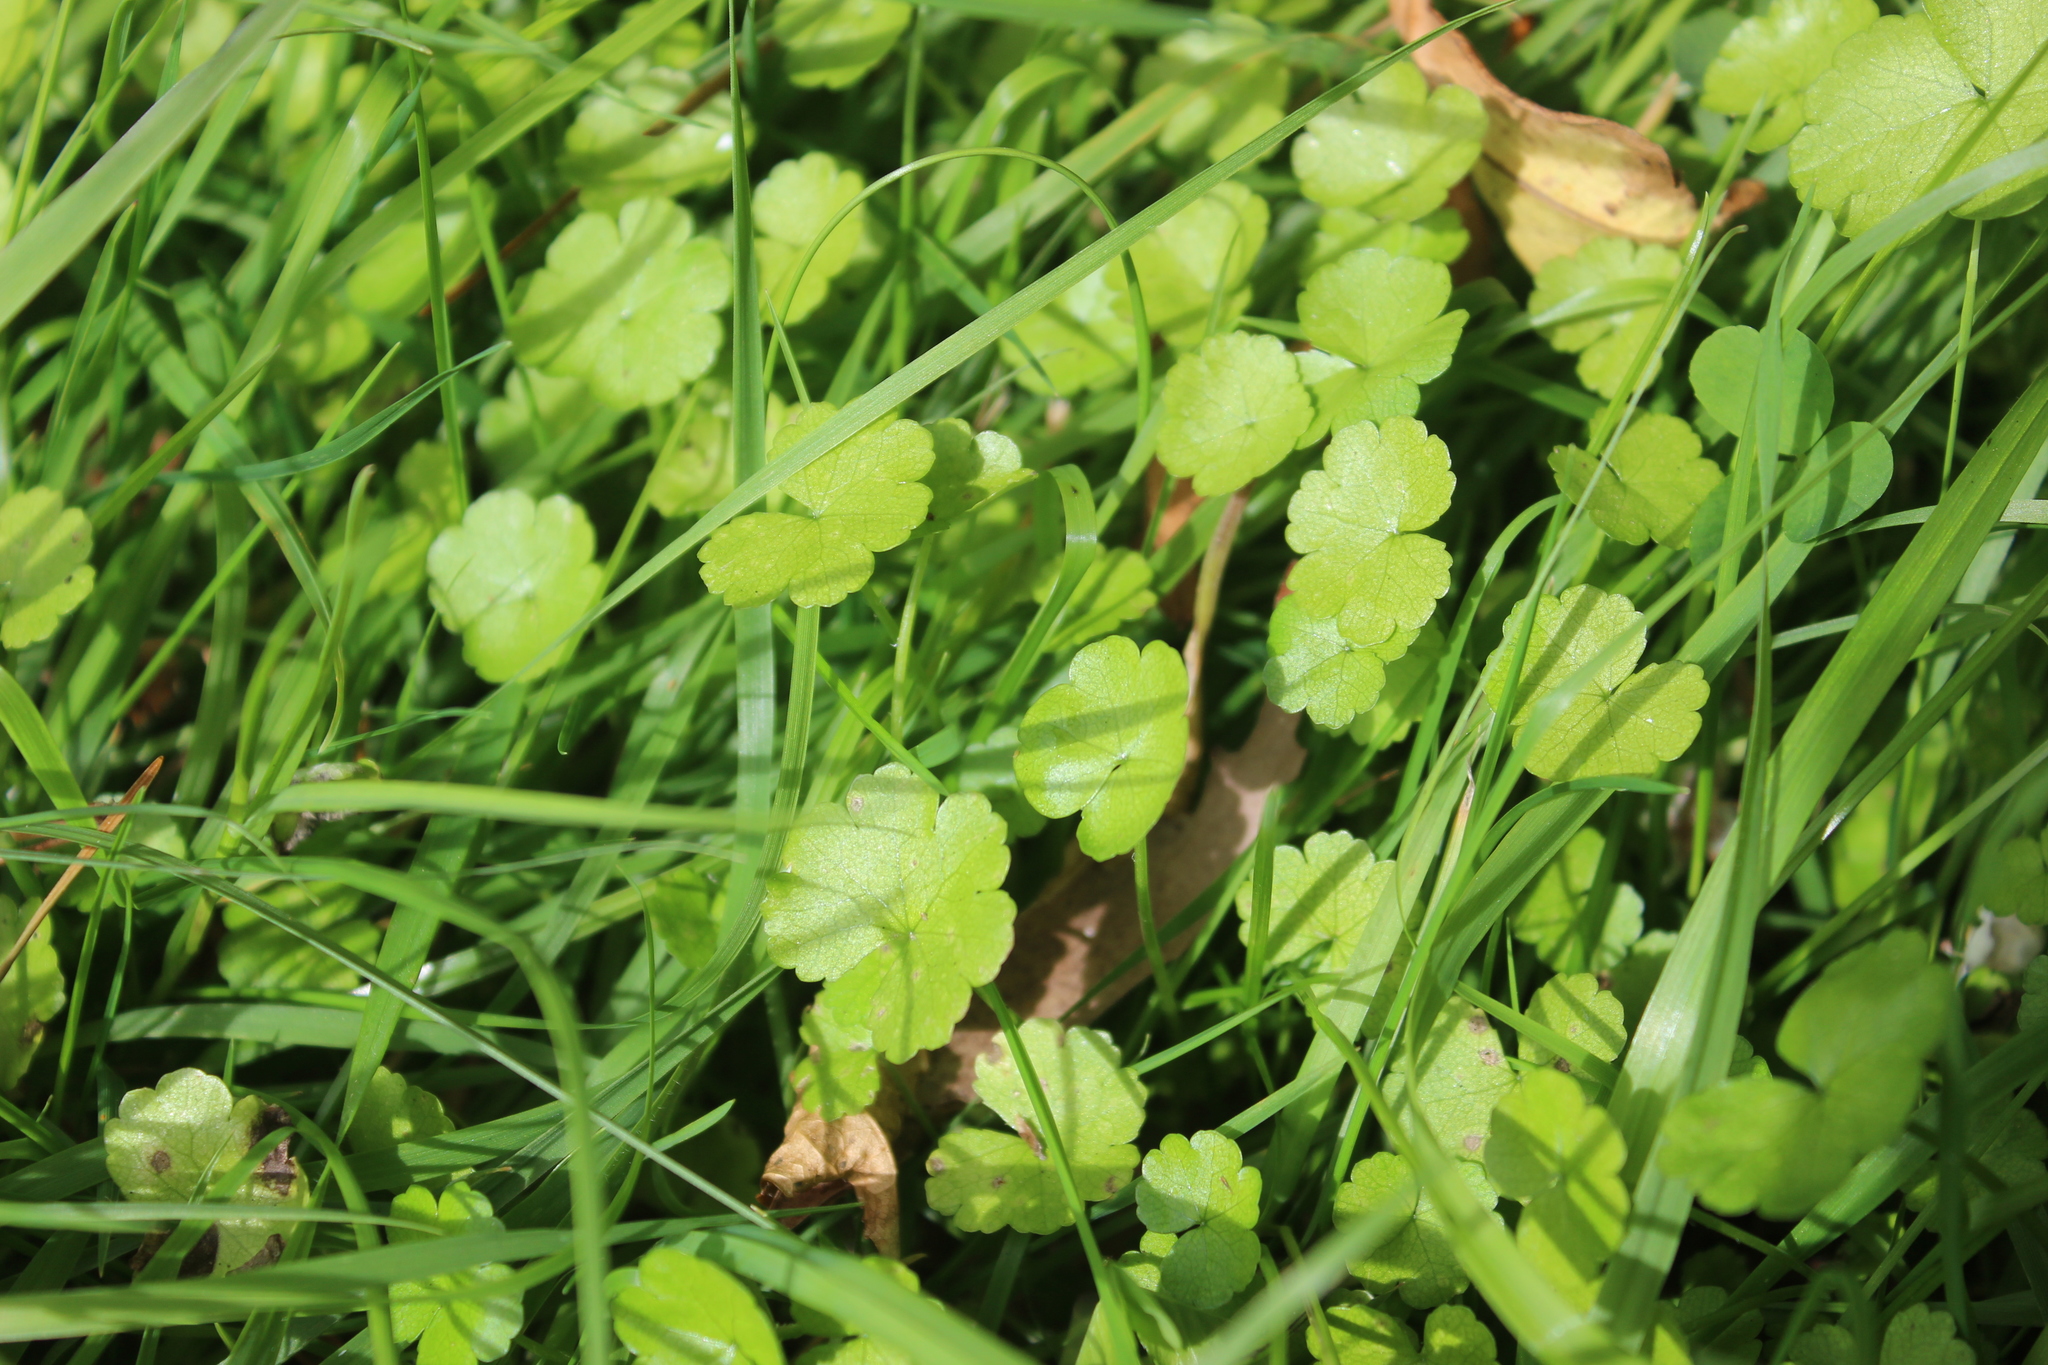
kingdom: Plantae
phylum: Tracheophyta
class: Magnoliopsida
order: Apiales
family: Araliaceae
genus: Hydrocotyle
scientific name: Hydrocotyle heteromeria
